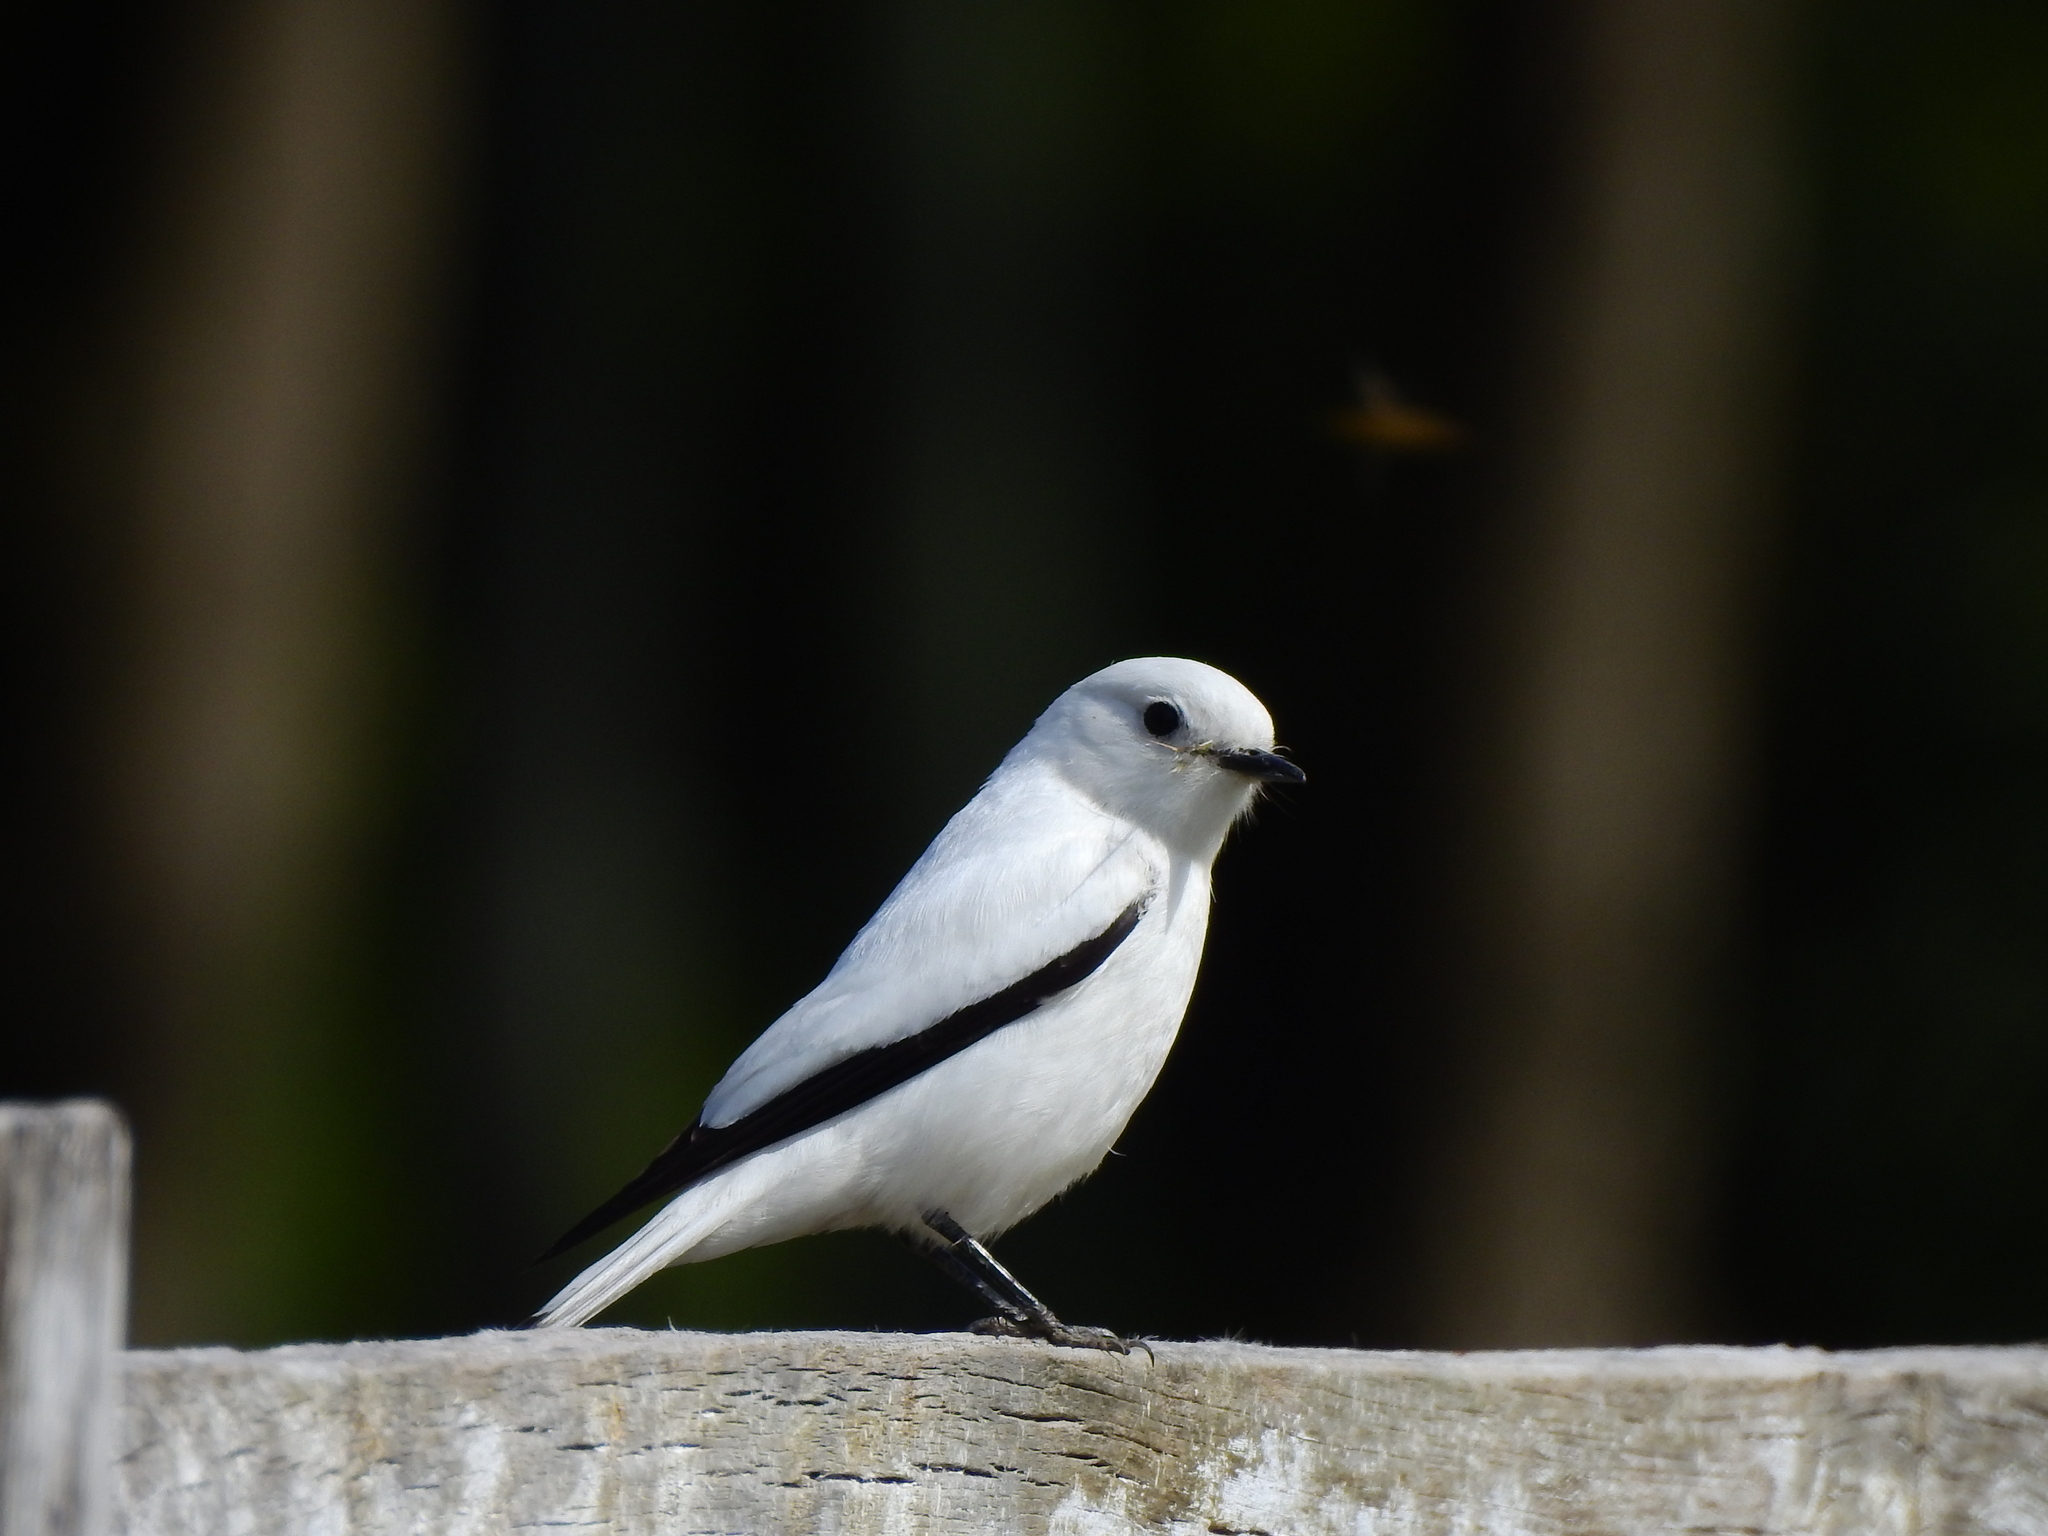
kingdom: Animalia
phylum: Chordata
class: Aves
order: Passeriformes
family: Tyrannidae
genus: Xolmis
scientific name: Xolmis irupero
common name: White monjita
